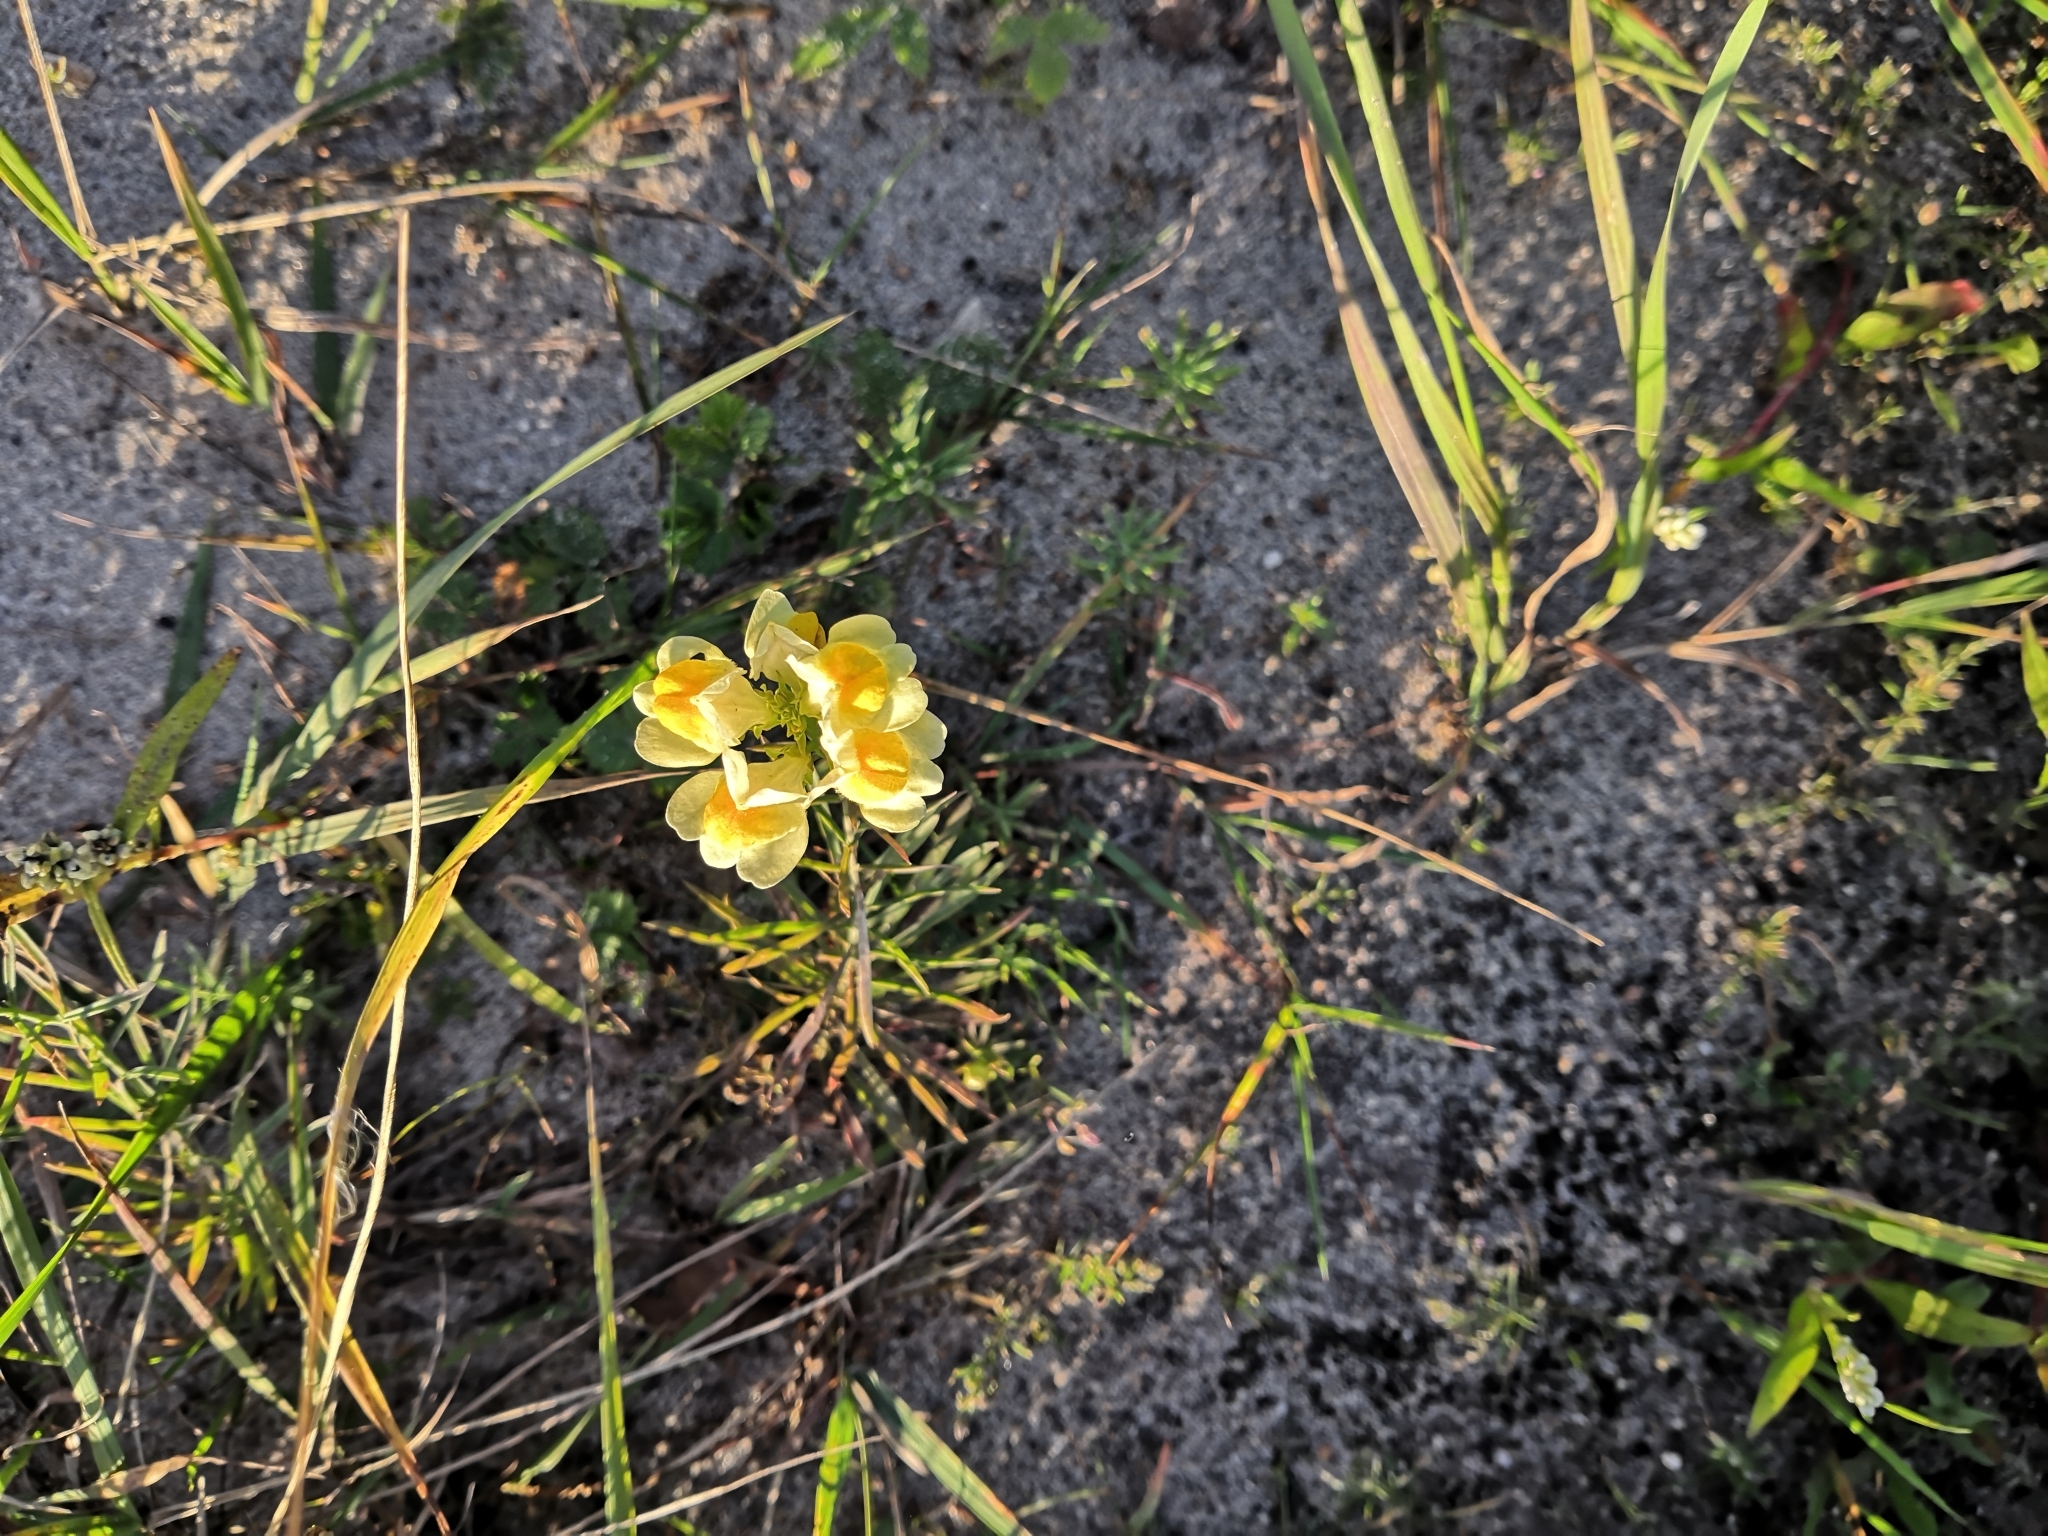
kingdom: Plantae
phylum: Tracheophyta
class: Magnoliopsida
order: Lamiales
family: Plantaginaceae
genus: Linaria
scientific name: Linaria vulgaris
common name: Butter and eggs
